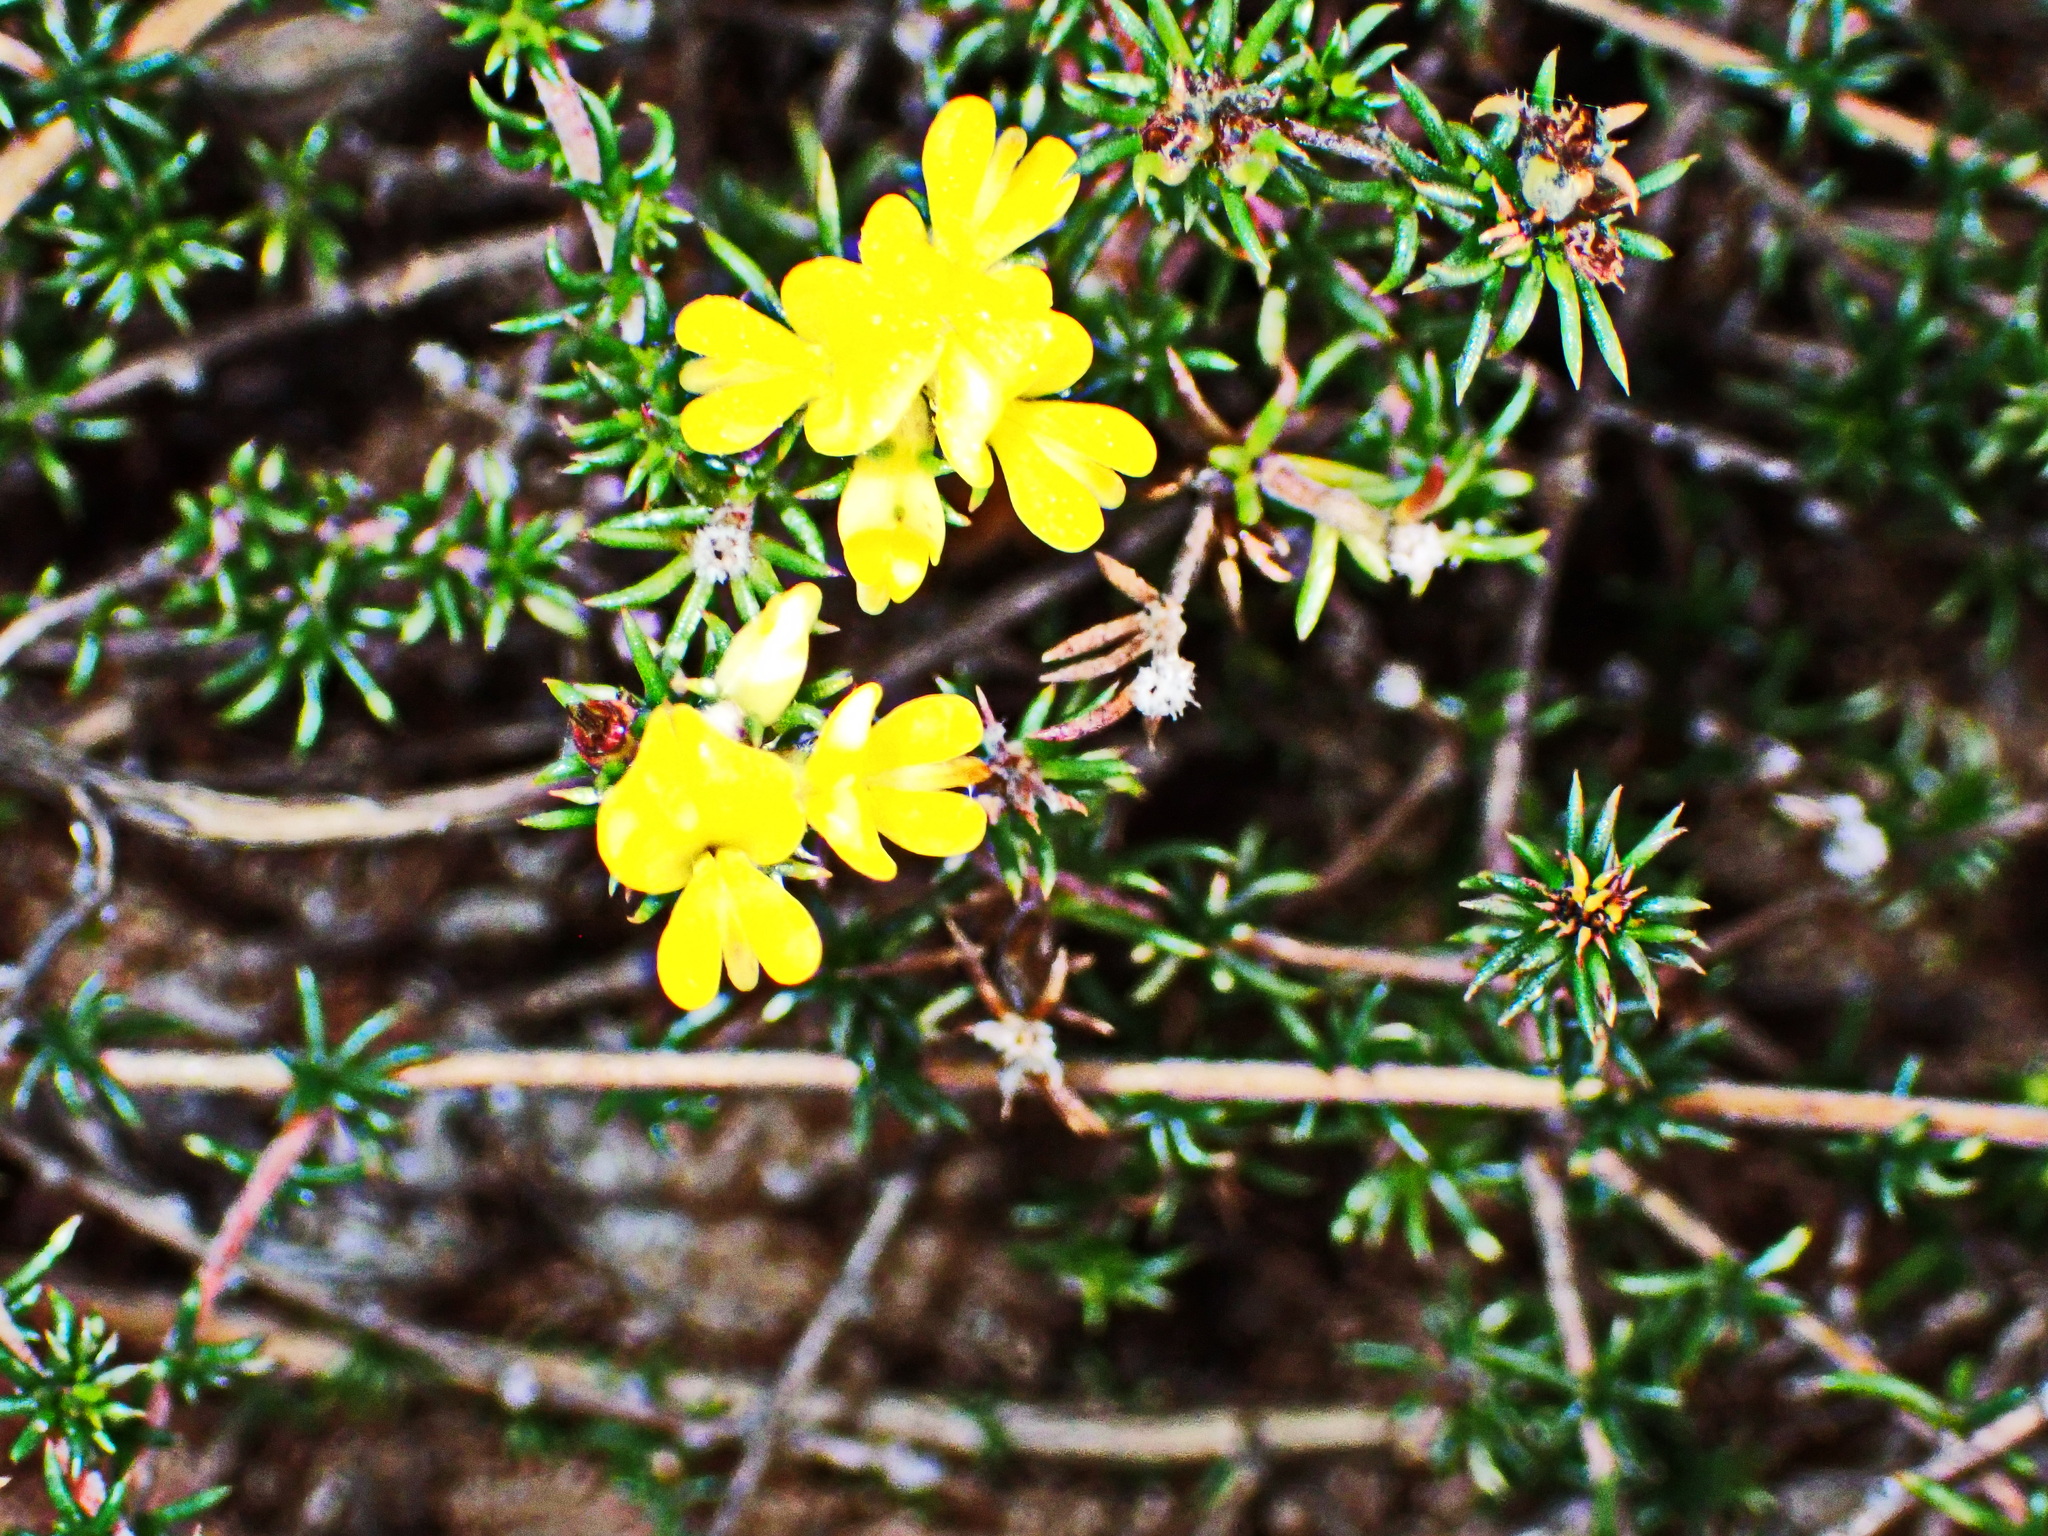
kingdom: Plantae
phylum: Tracheophyta
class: Magnoliopsida
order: Fabales
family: Fabaceae
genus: Aspalathus
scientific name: Aspalathus crassisepala
